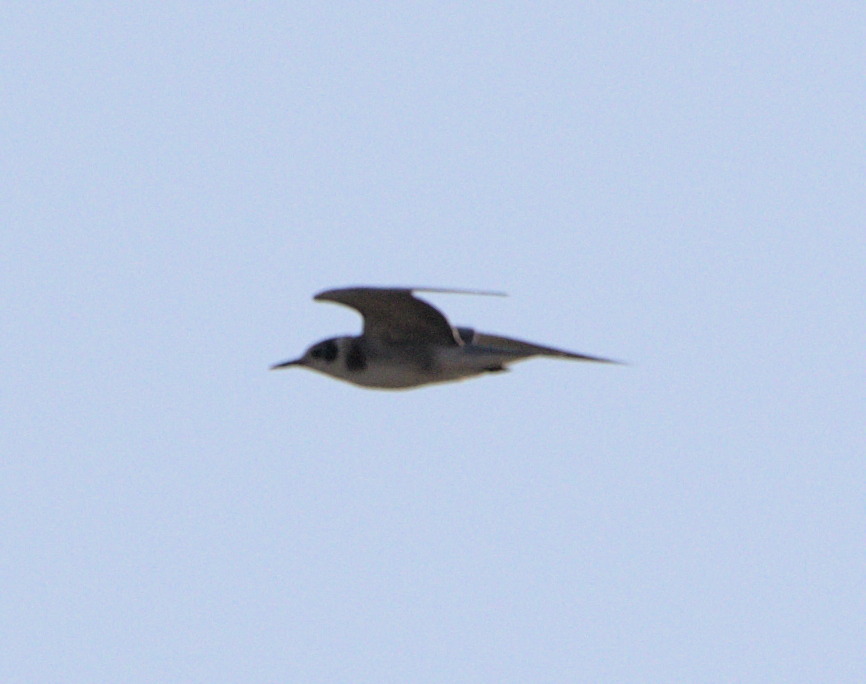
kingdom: Animalia
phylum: Chordata
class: Aves
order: Charadriiformes
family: Laridae
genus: Chlidonias
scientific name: Chlidonias niger
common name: Black tern
